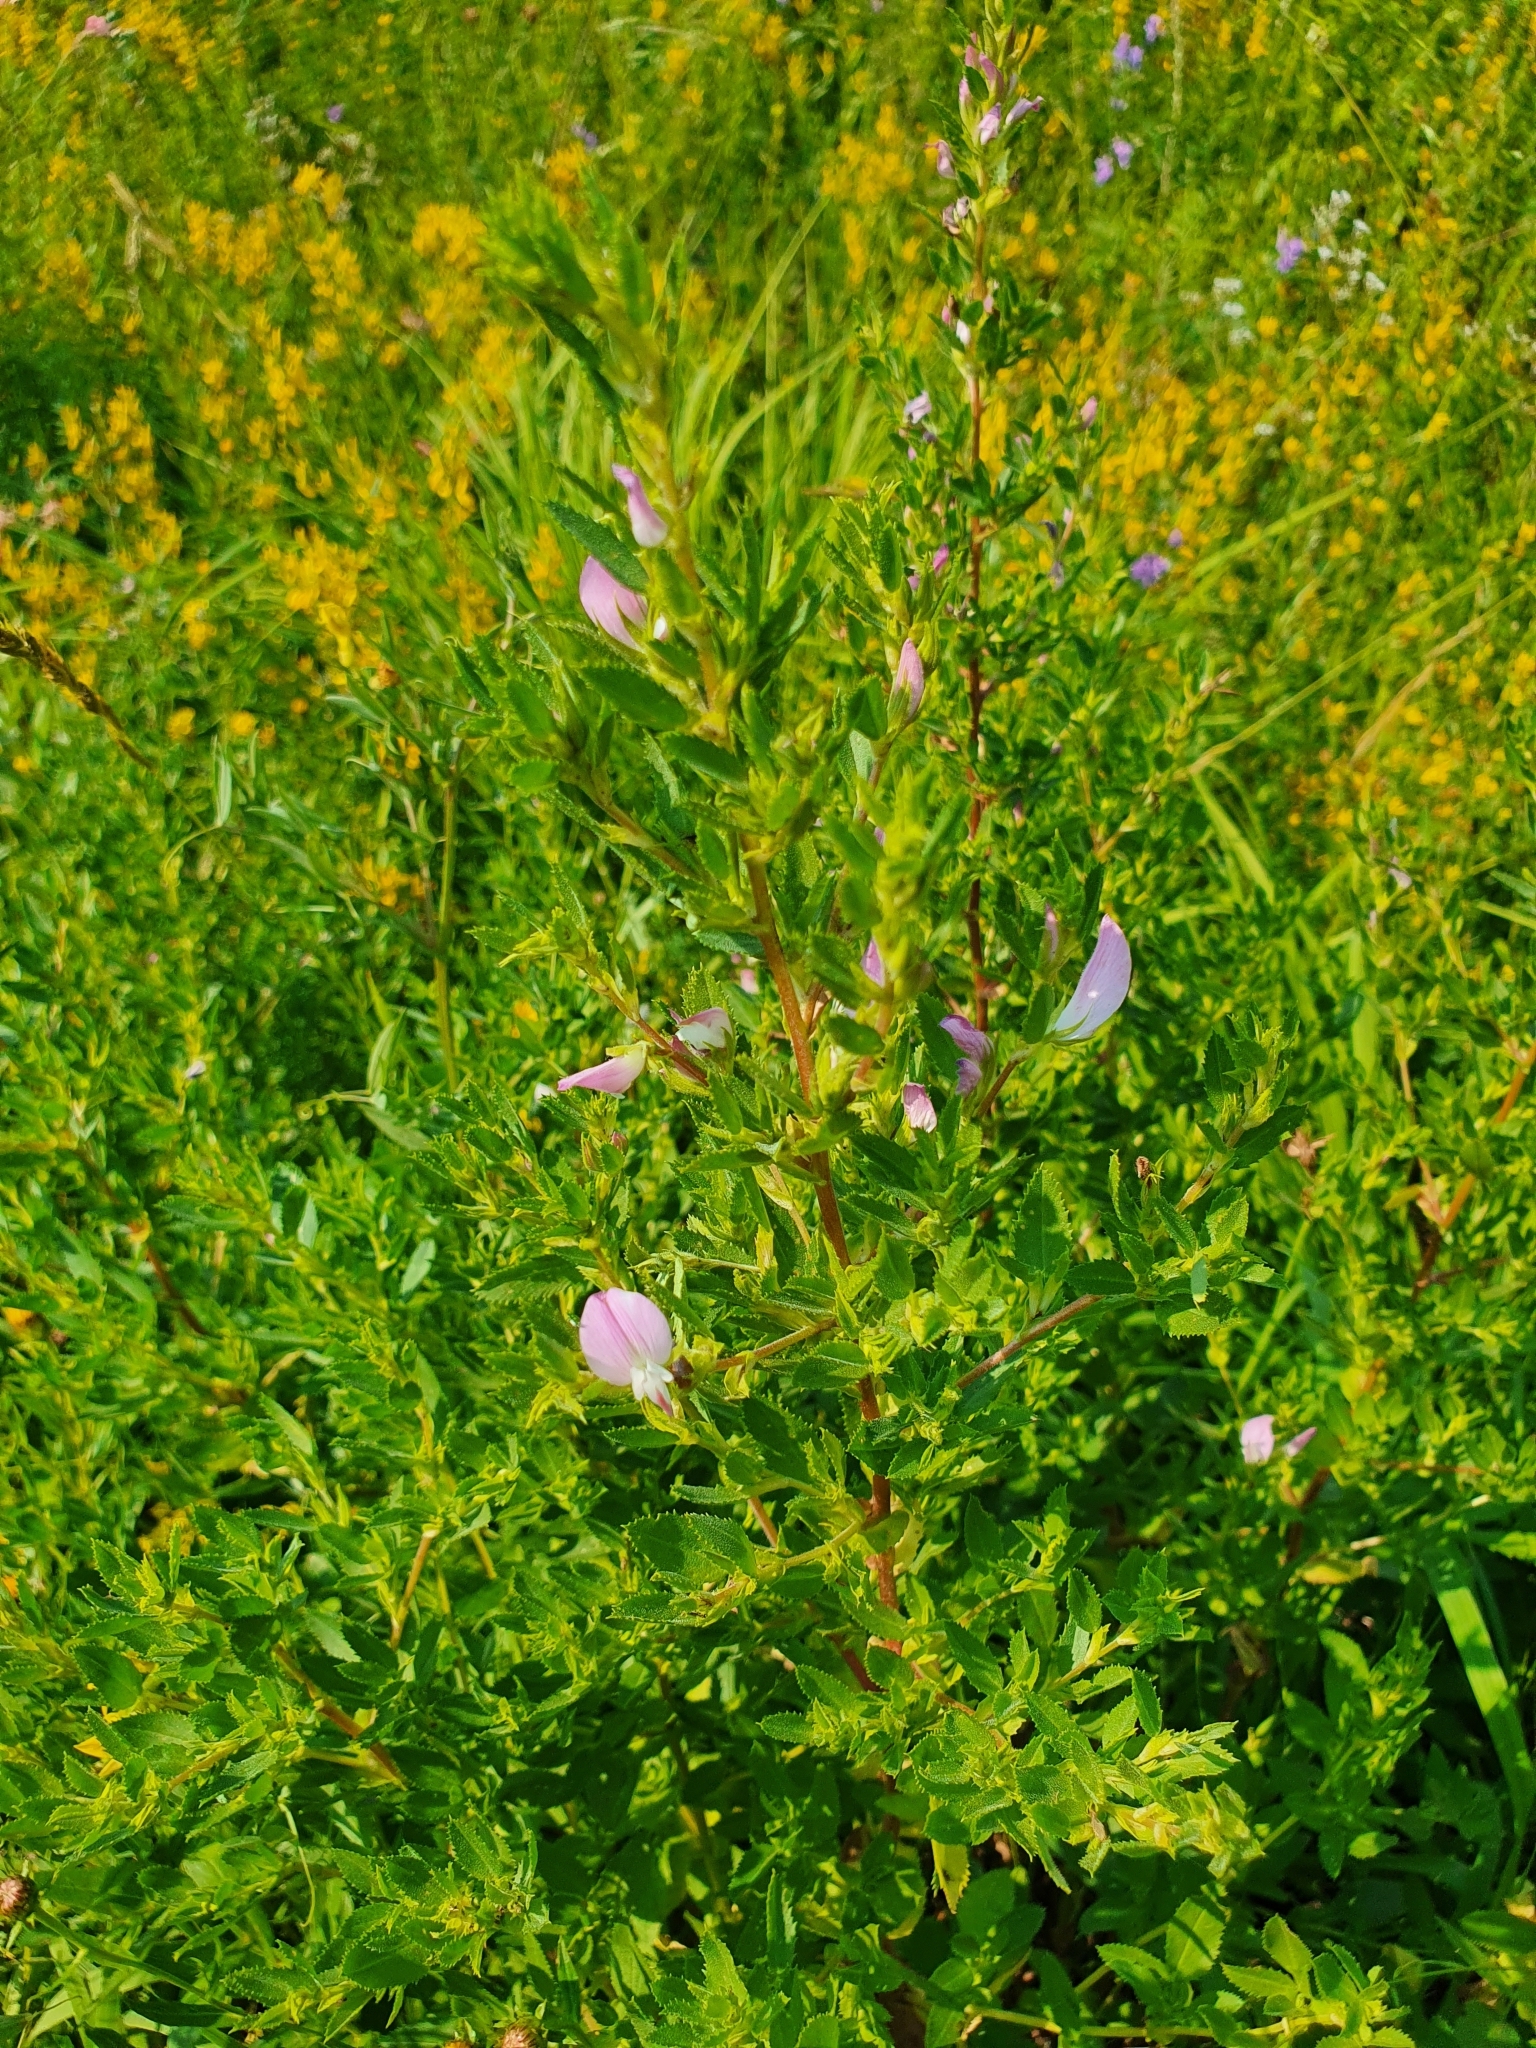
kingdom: Plantae
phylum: Tracheophyta
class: Magnoliopsida
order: Fabales
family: Fabaceae
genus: Ononis
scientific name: Ononis arvensis
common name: Field restharrow
